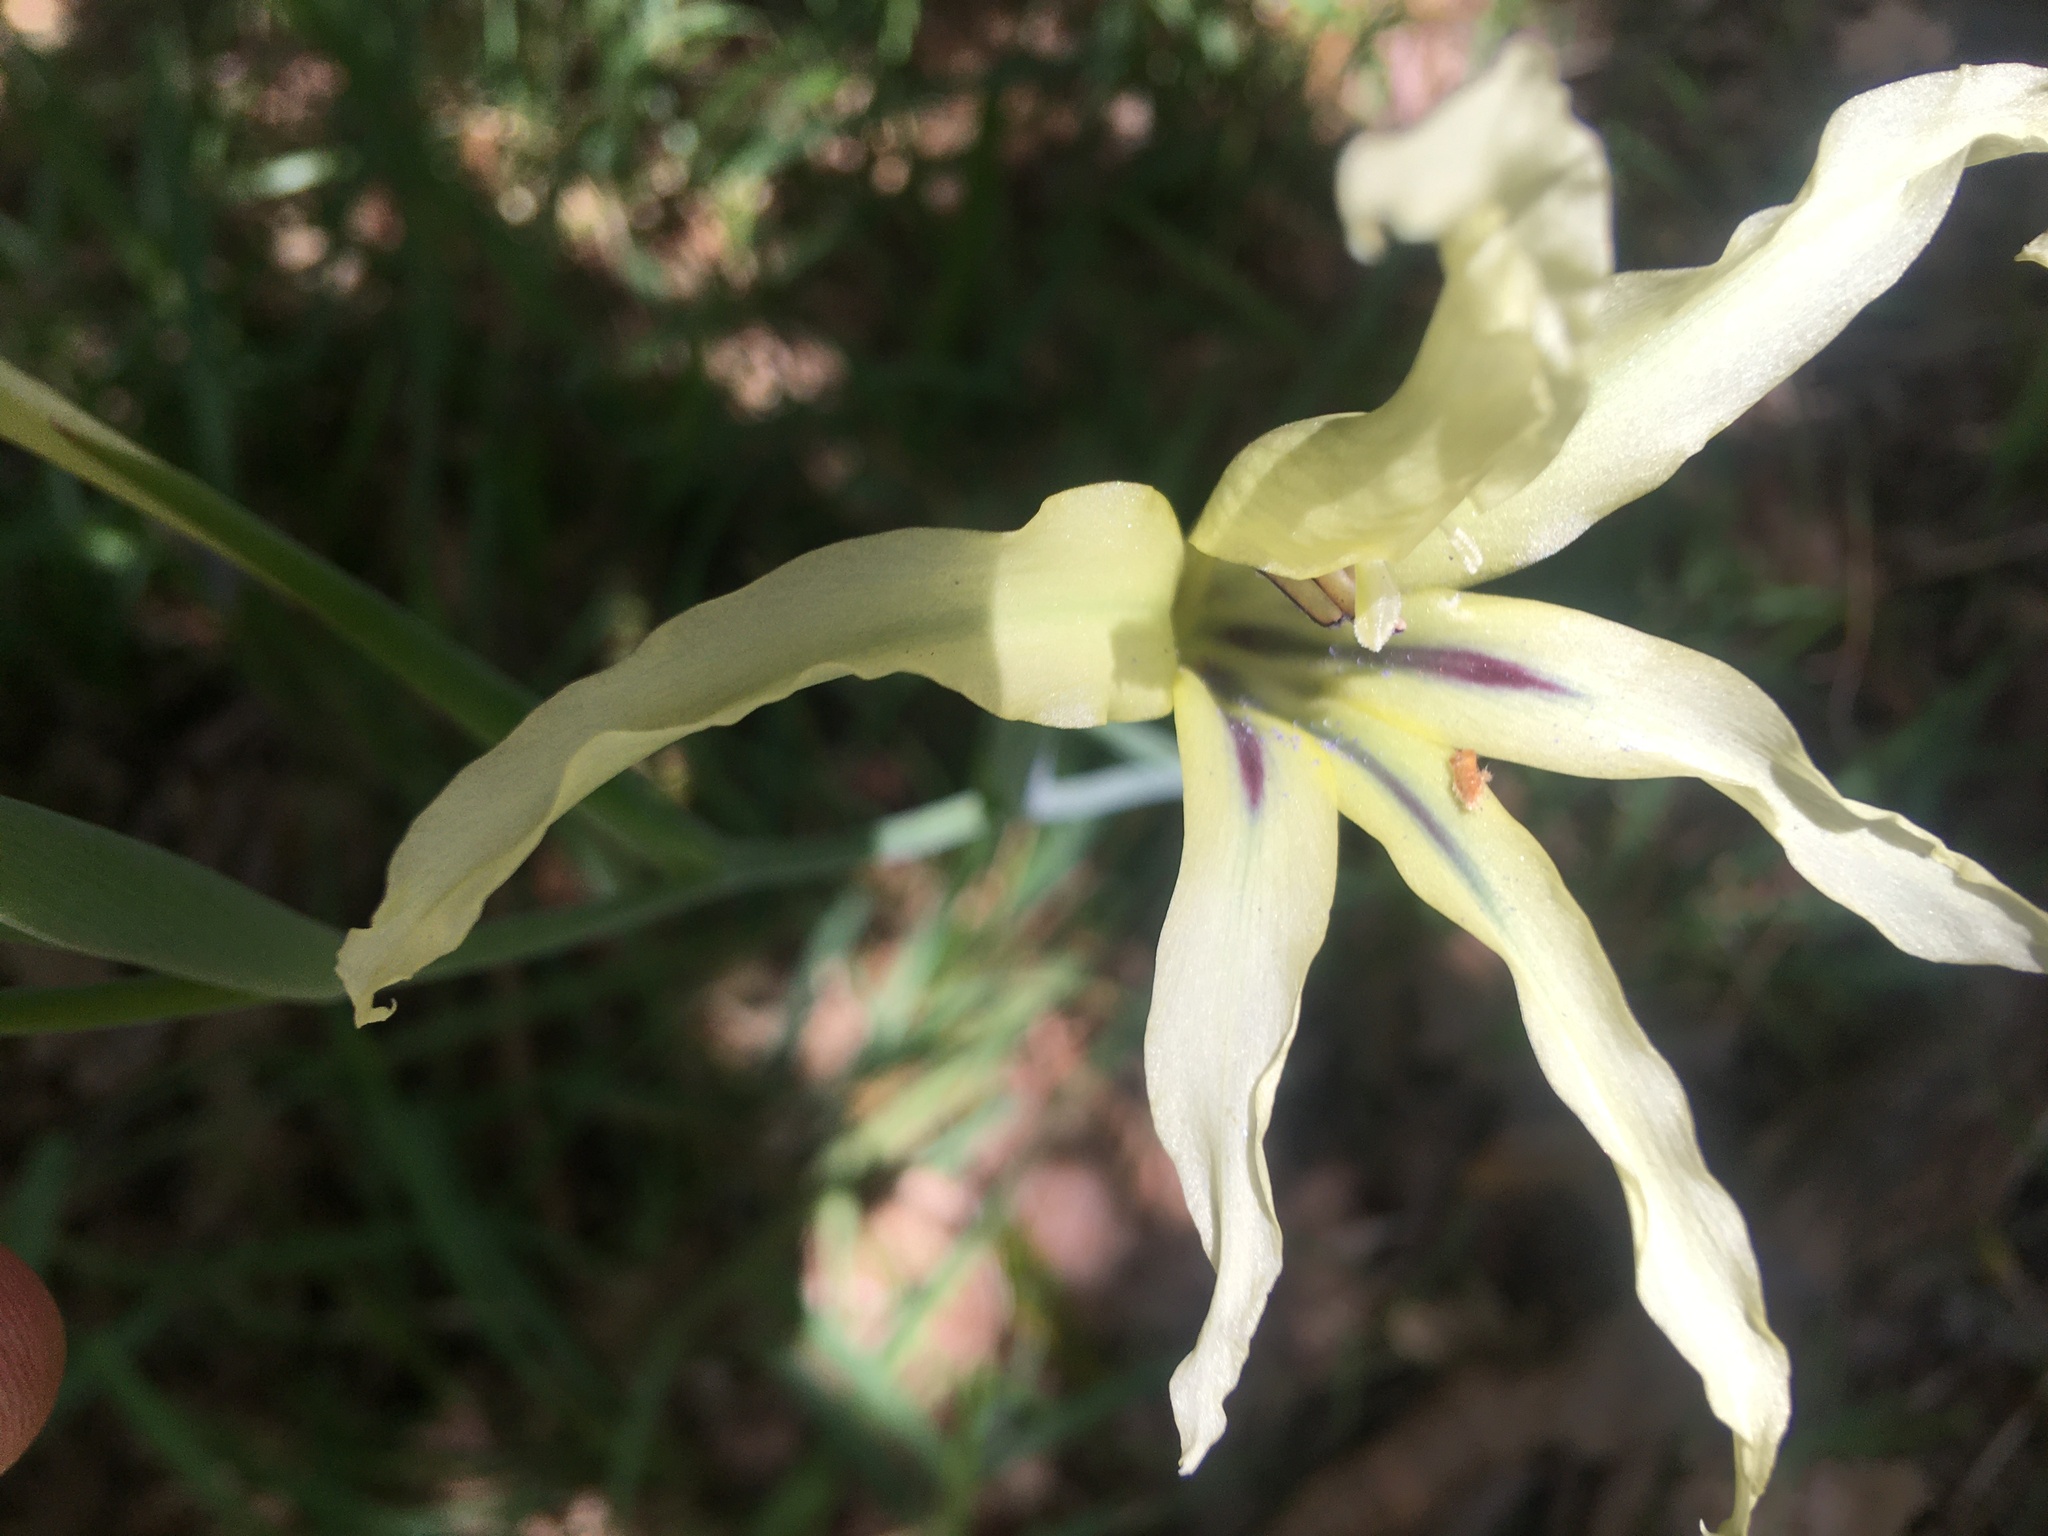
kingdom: Plantae
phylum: Tracheophyta
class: Liliopsida
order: Asparagales
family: Iridaceae
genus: Gladiolus
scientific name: Gladiolus undulatus
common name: Large painted-lady
